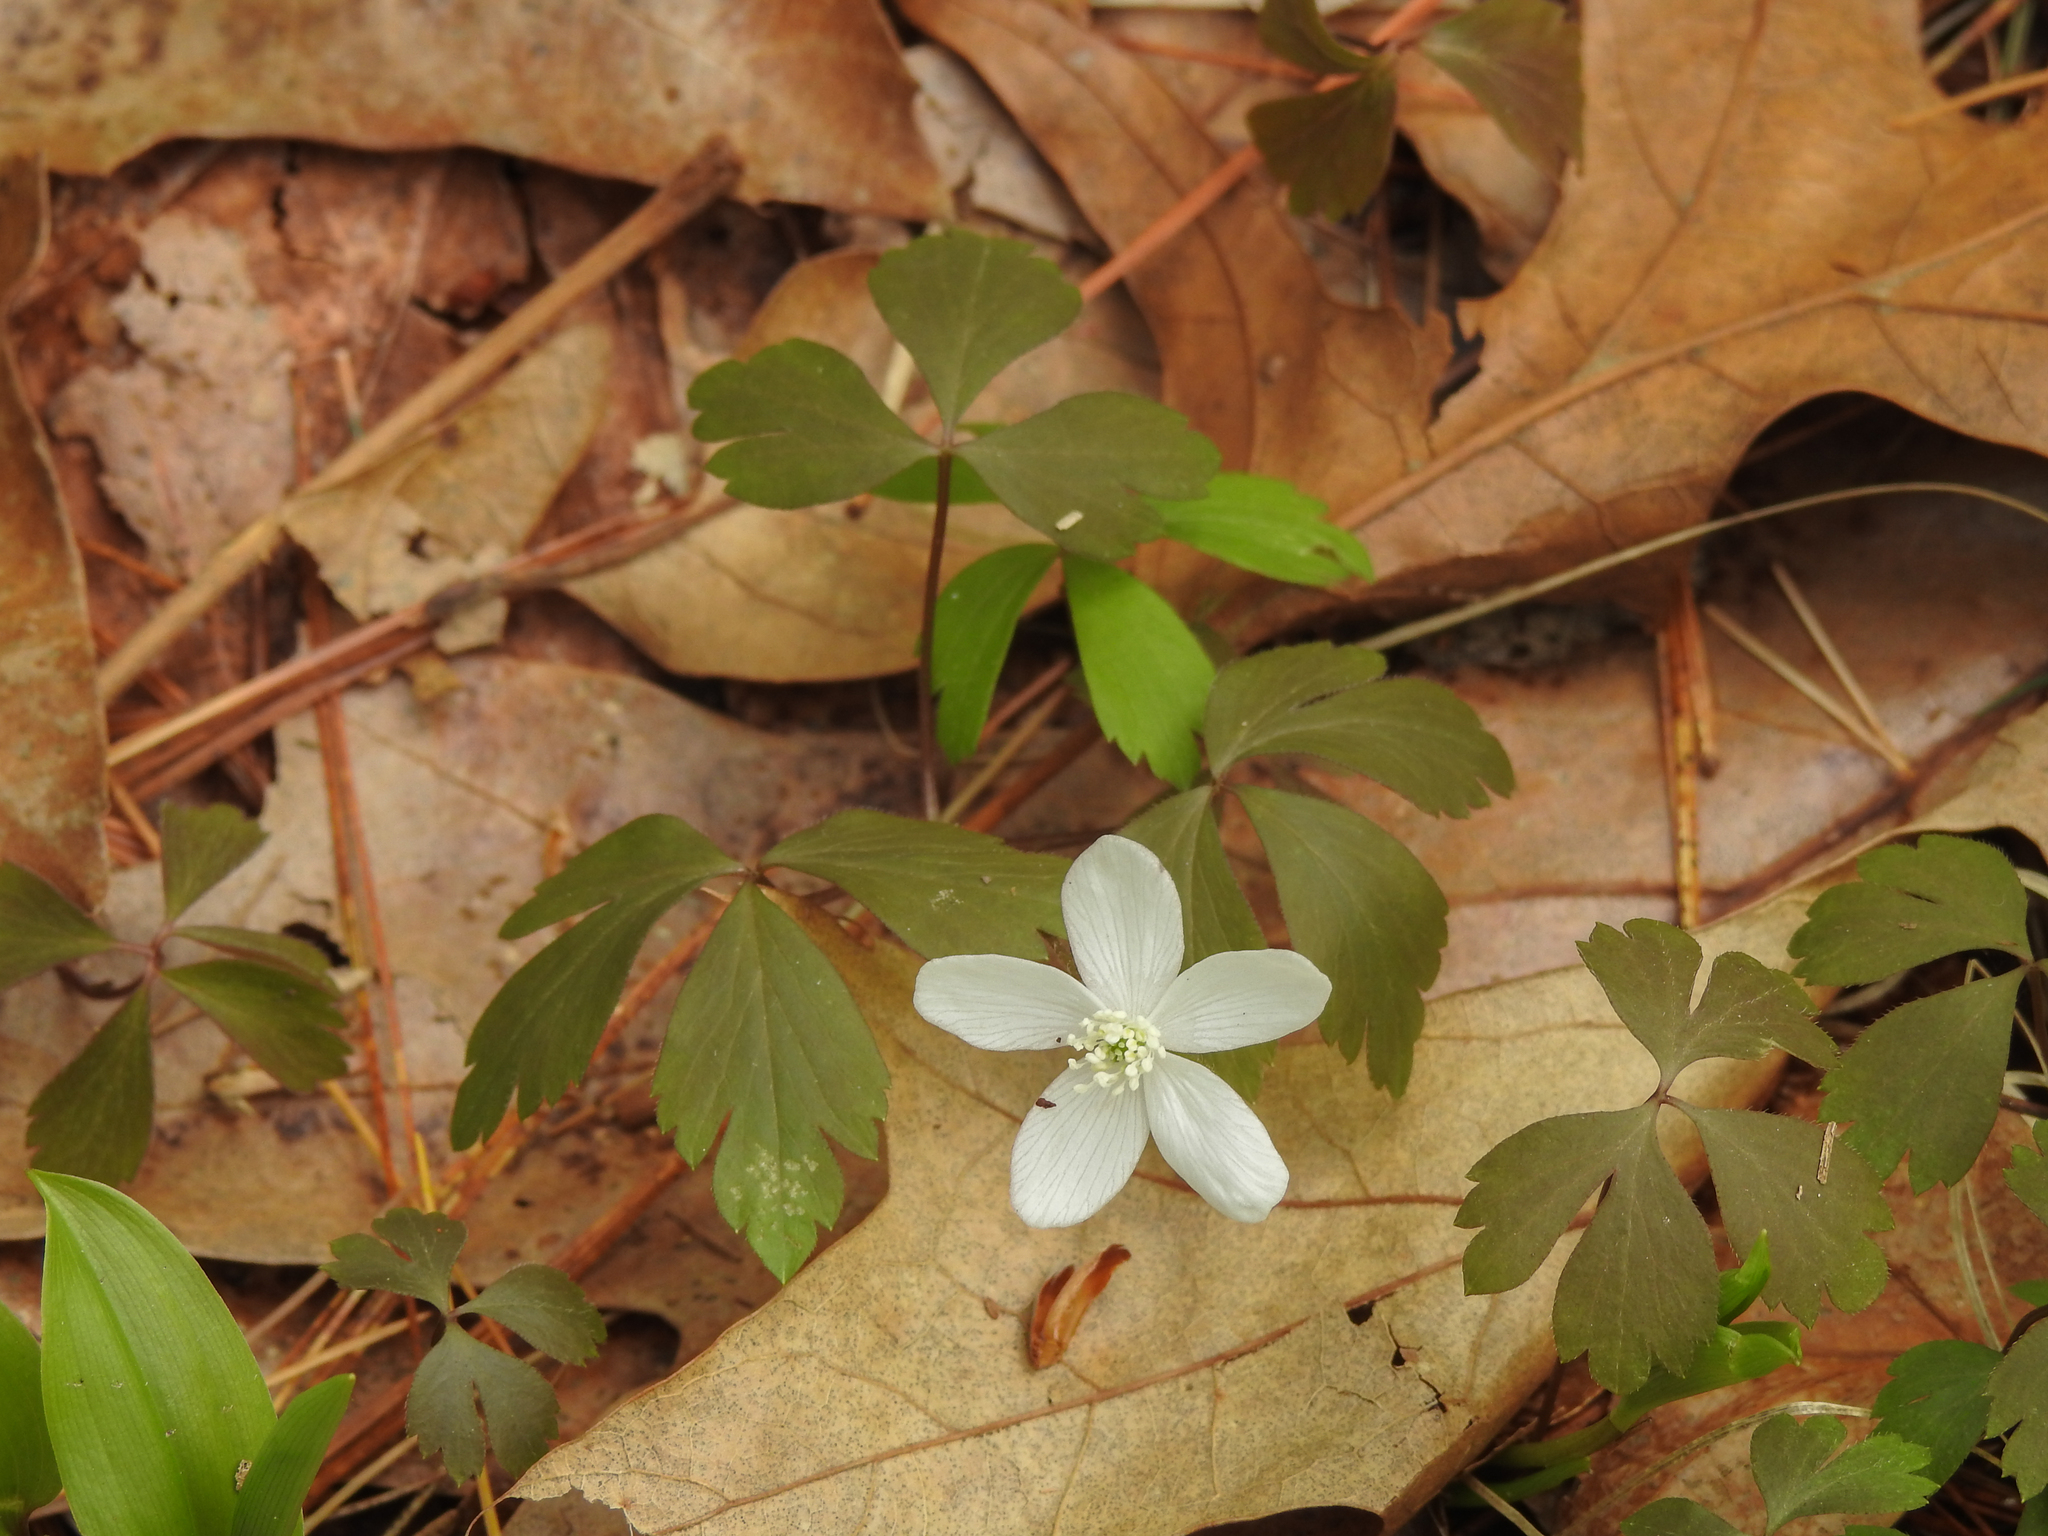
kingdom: Plantae
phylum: Tracheophyta
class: Magnoliopsida
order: Ranunculales
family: Ranunculaceae
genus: Anemone
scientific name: Anemone quinquefolia
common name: Wood anemone
